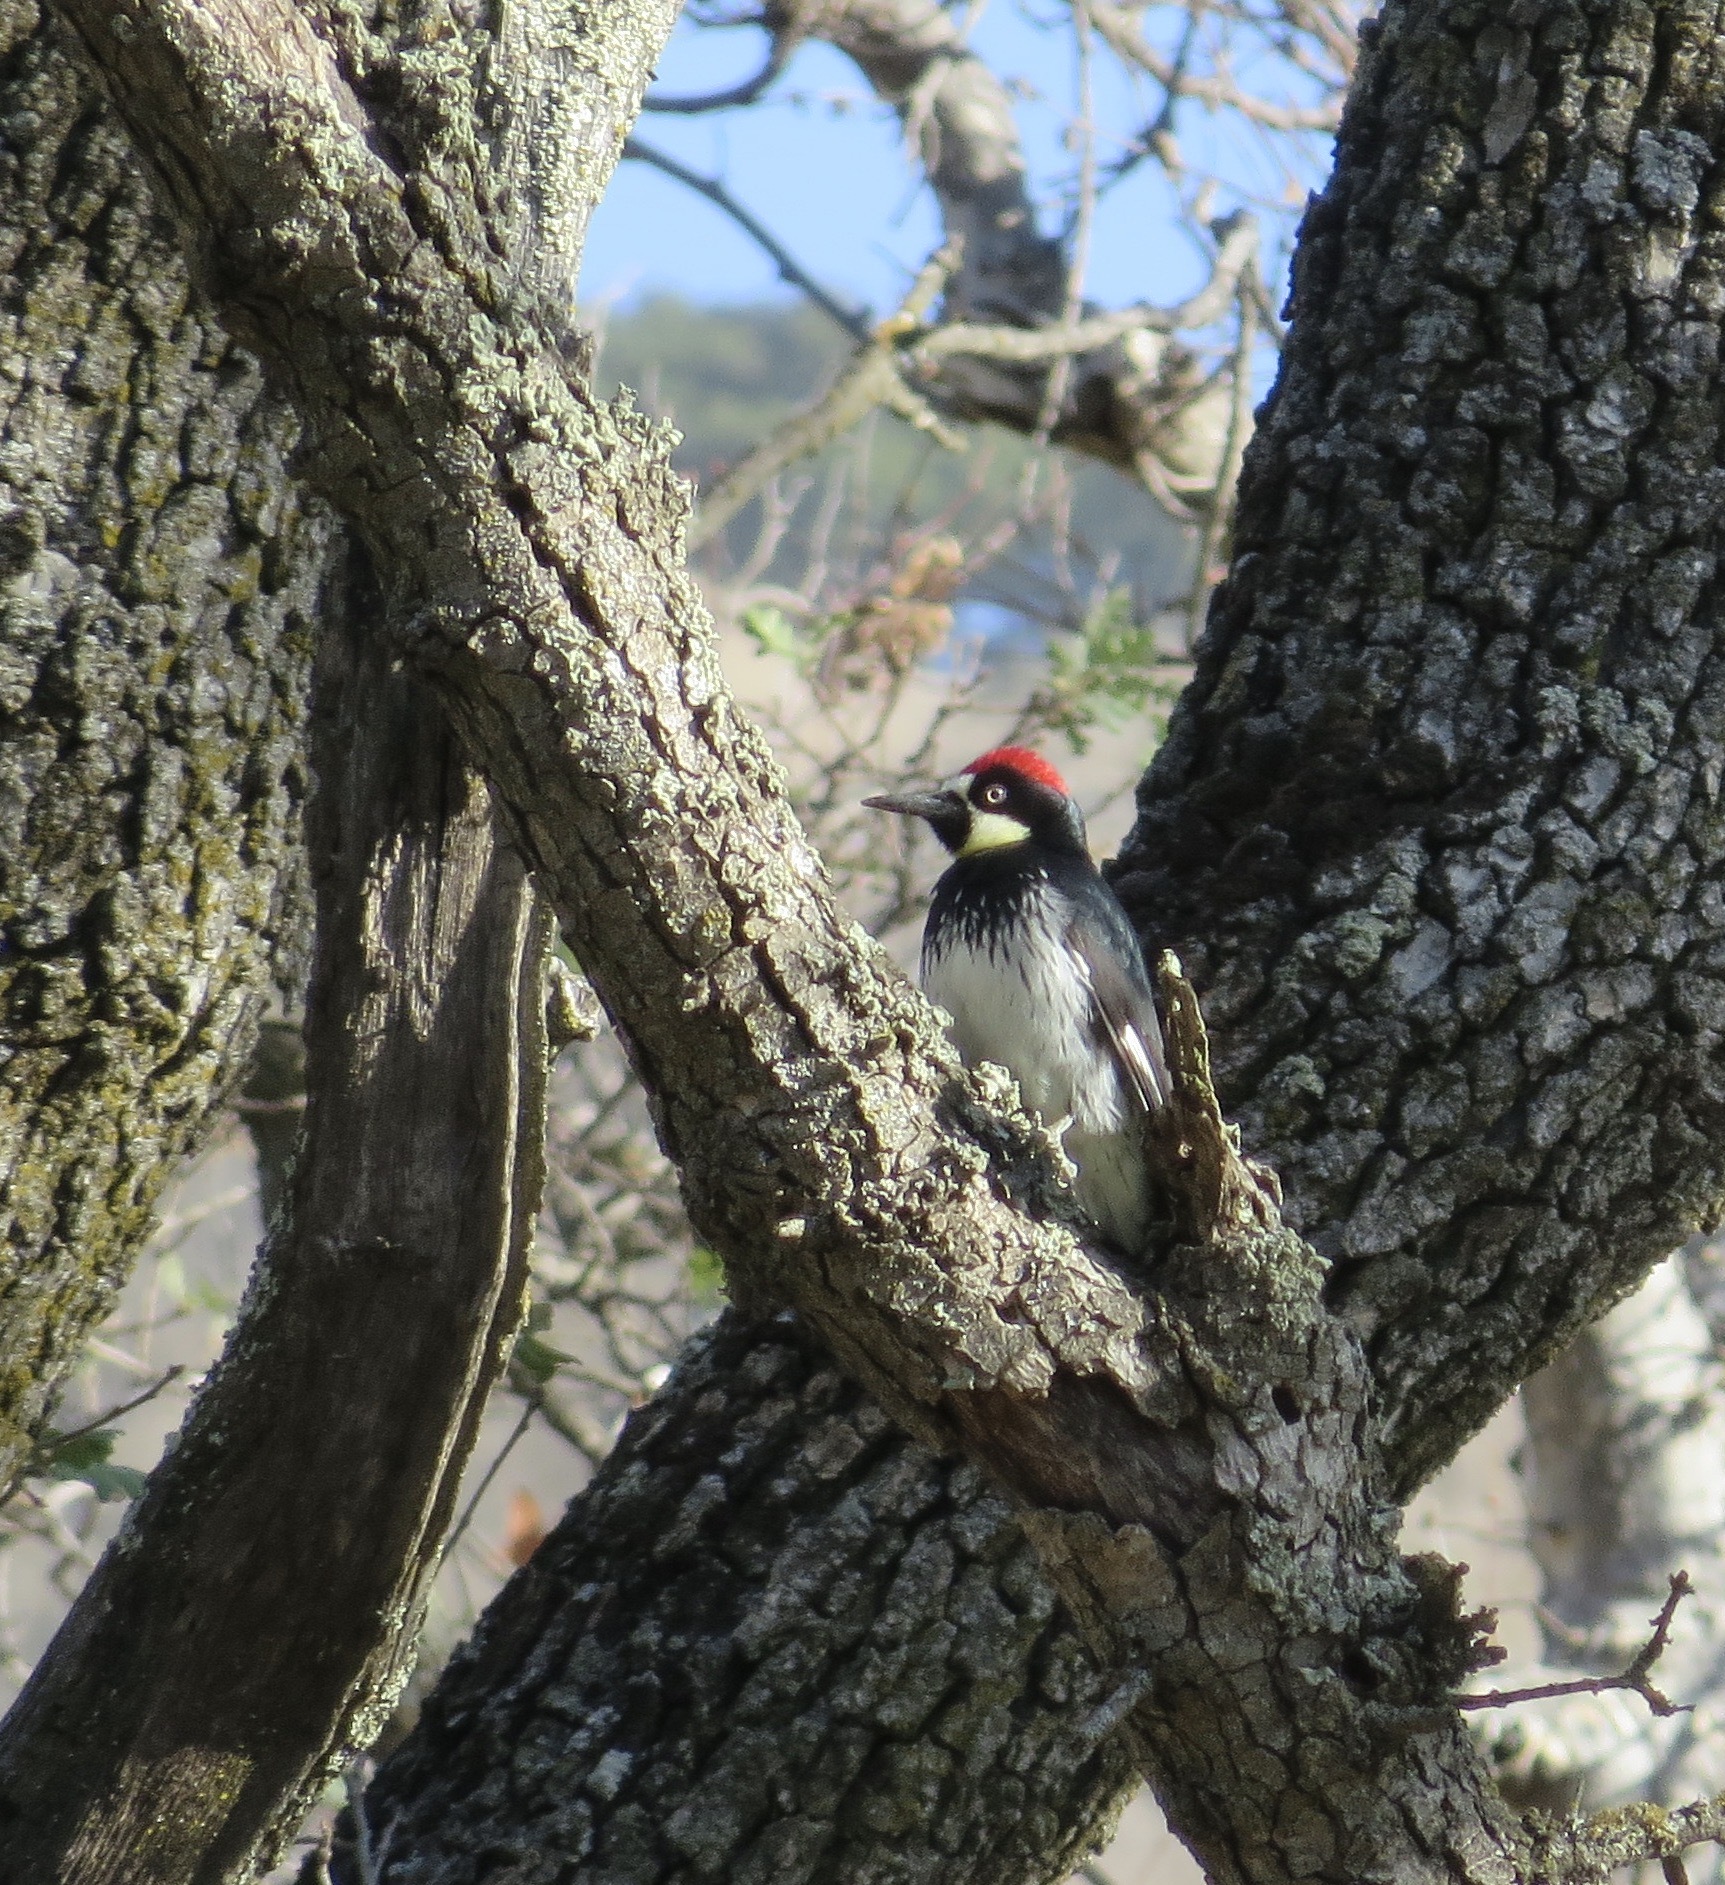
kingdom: Animalia
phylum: Chordata
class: Aves
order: Piciformes
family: Picidae
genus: Melanerpes
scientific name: Melanerpes formicivorus
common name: Acorn woodpecker
